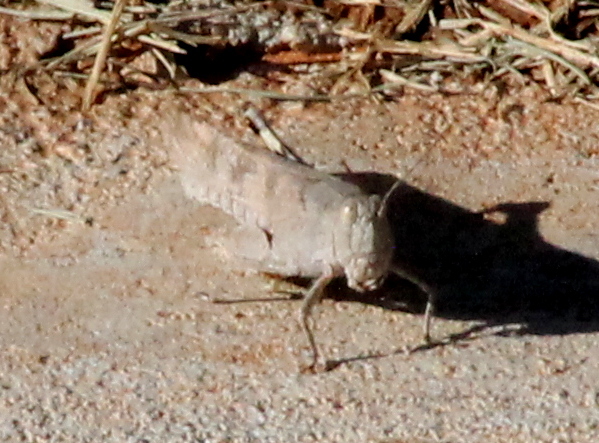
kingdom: Animalia
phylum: Arthropoda
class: Insecta
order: Orthoptera
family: Acrididae
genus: Trimerotropis
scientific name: Trimerotropis maritima
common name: Seaside locust
